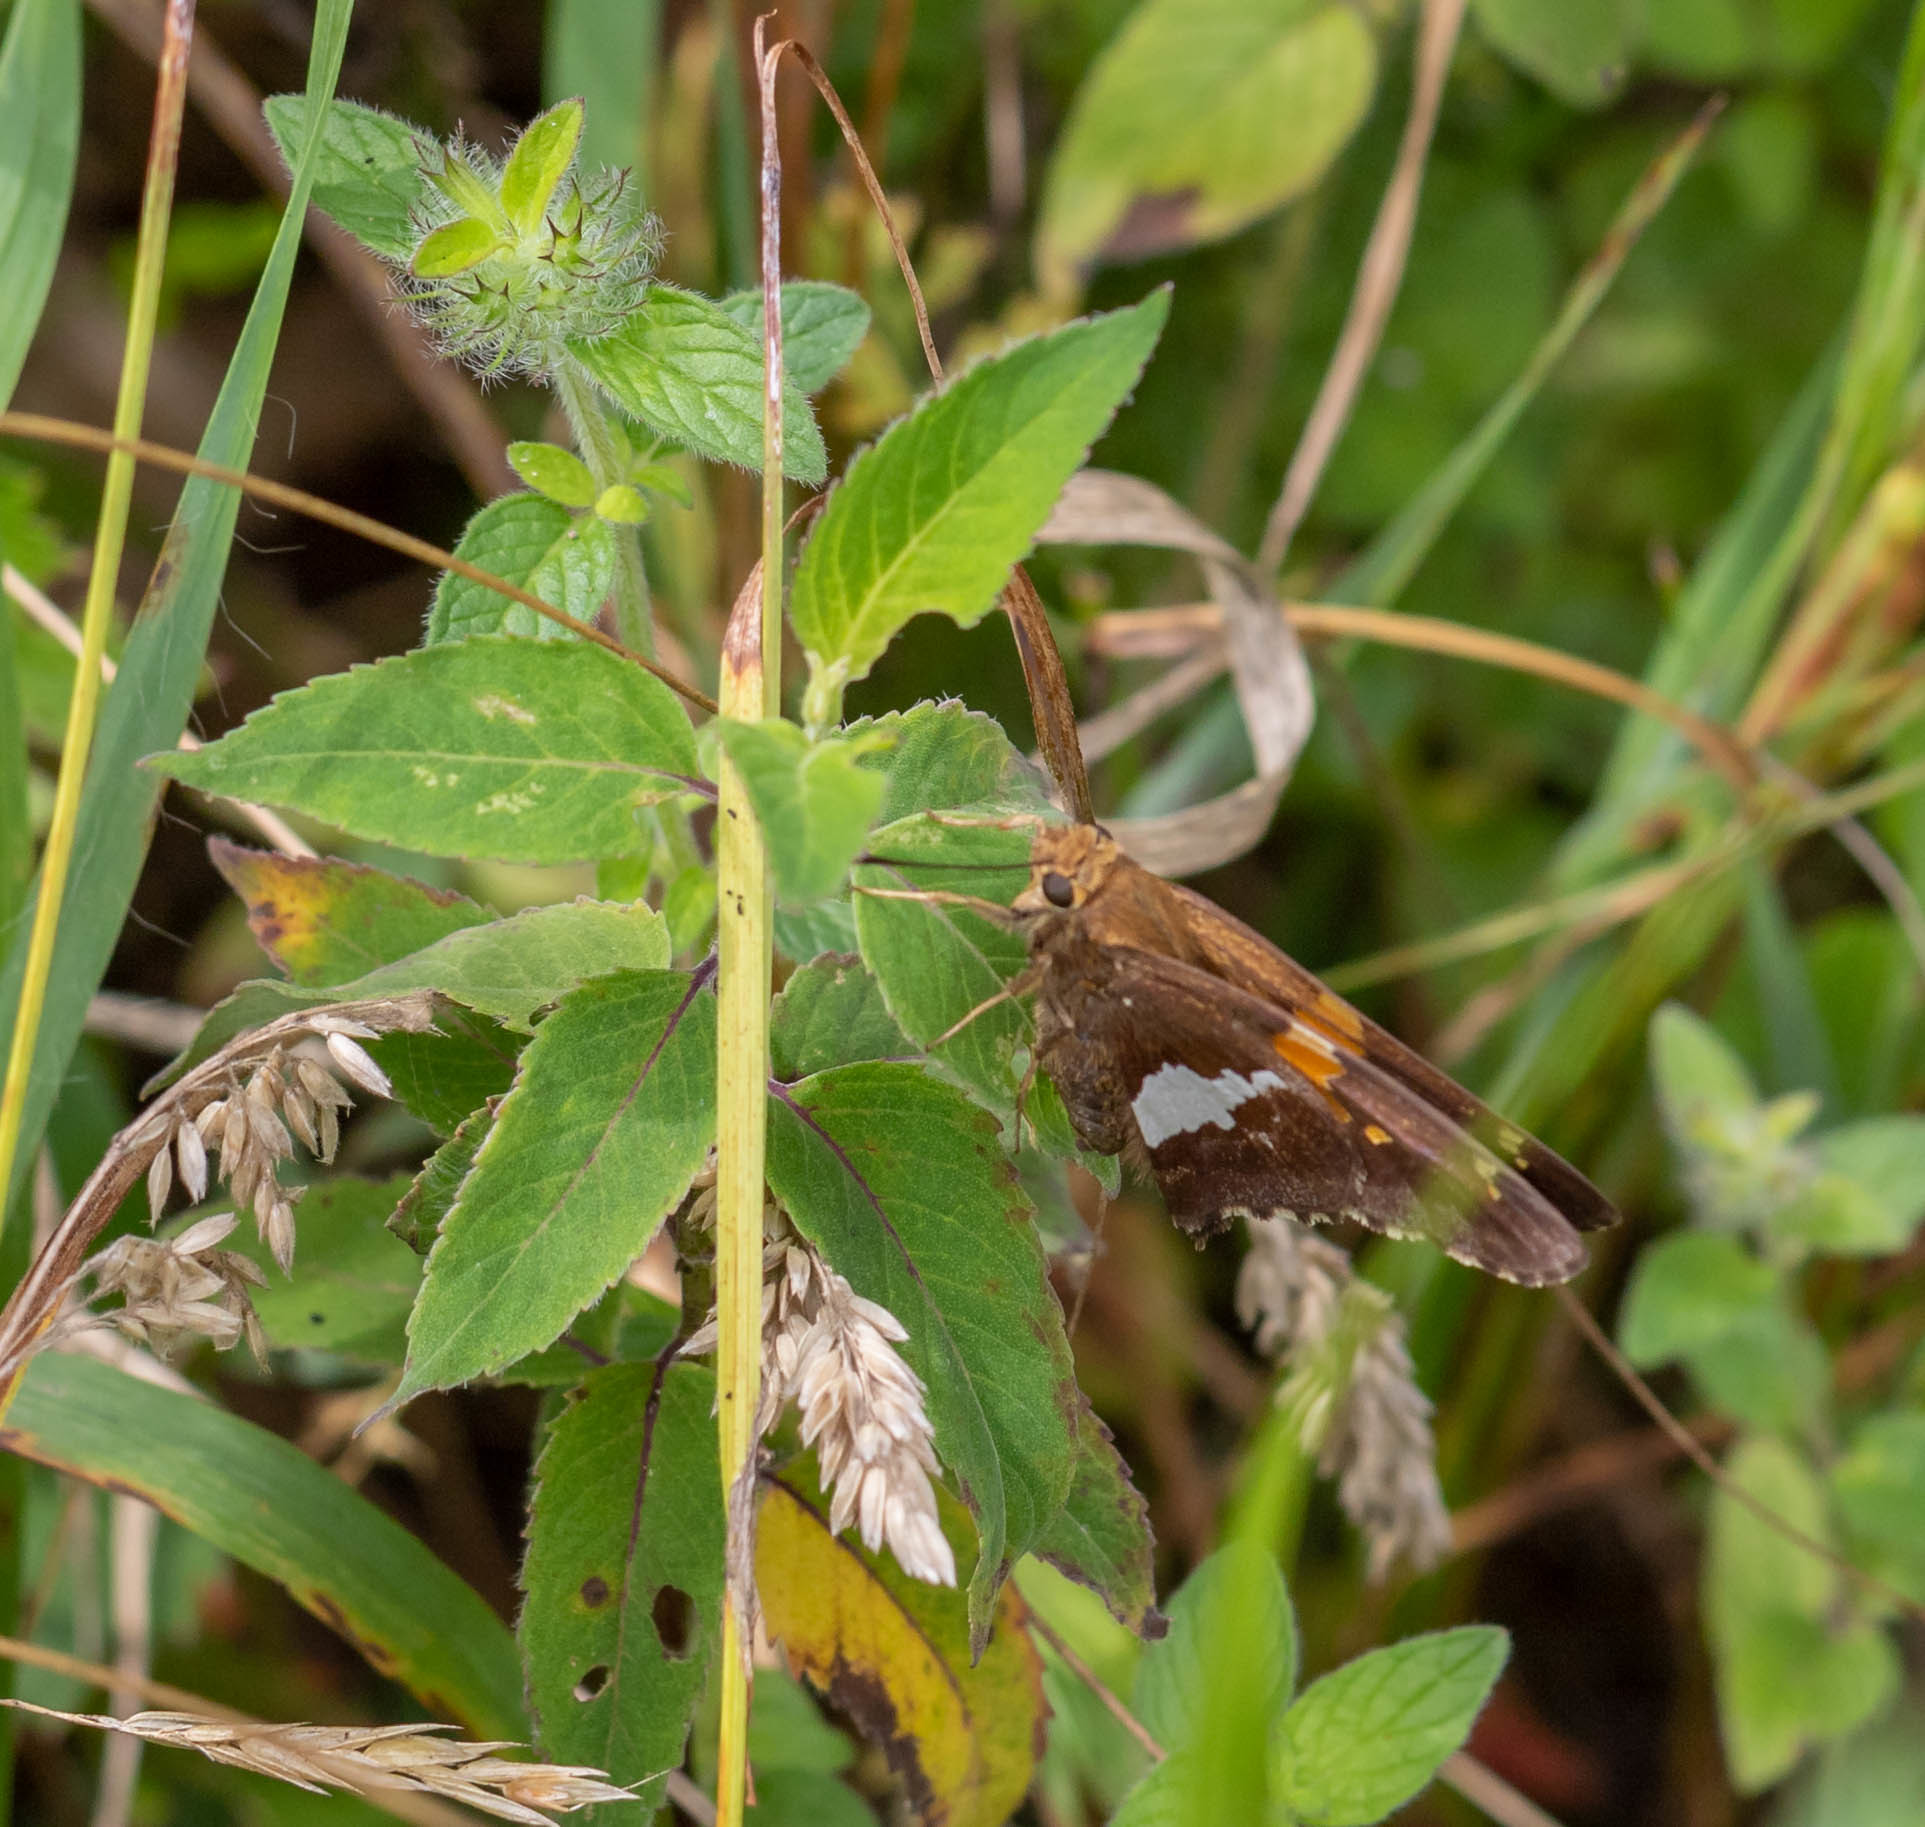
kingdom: Animalia
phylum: Arthropoda
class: Insecta
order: Lepidoptera
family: Hesperiidae
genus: Epargyreus
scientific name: Epargyreus clarus
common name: Silver-spotted skipper
